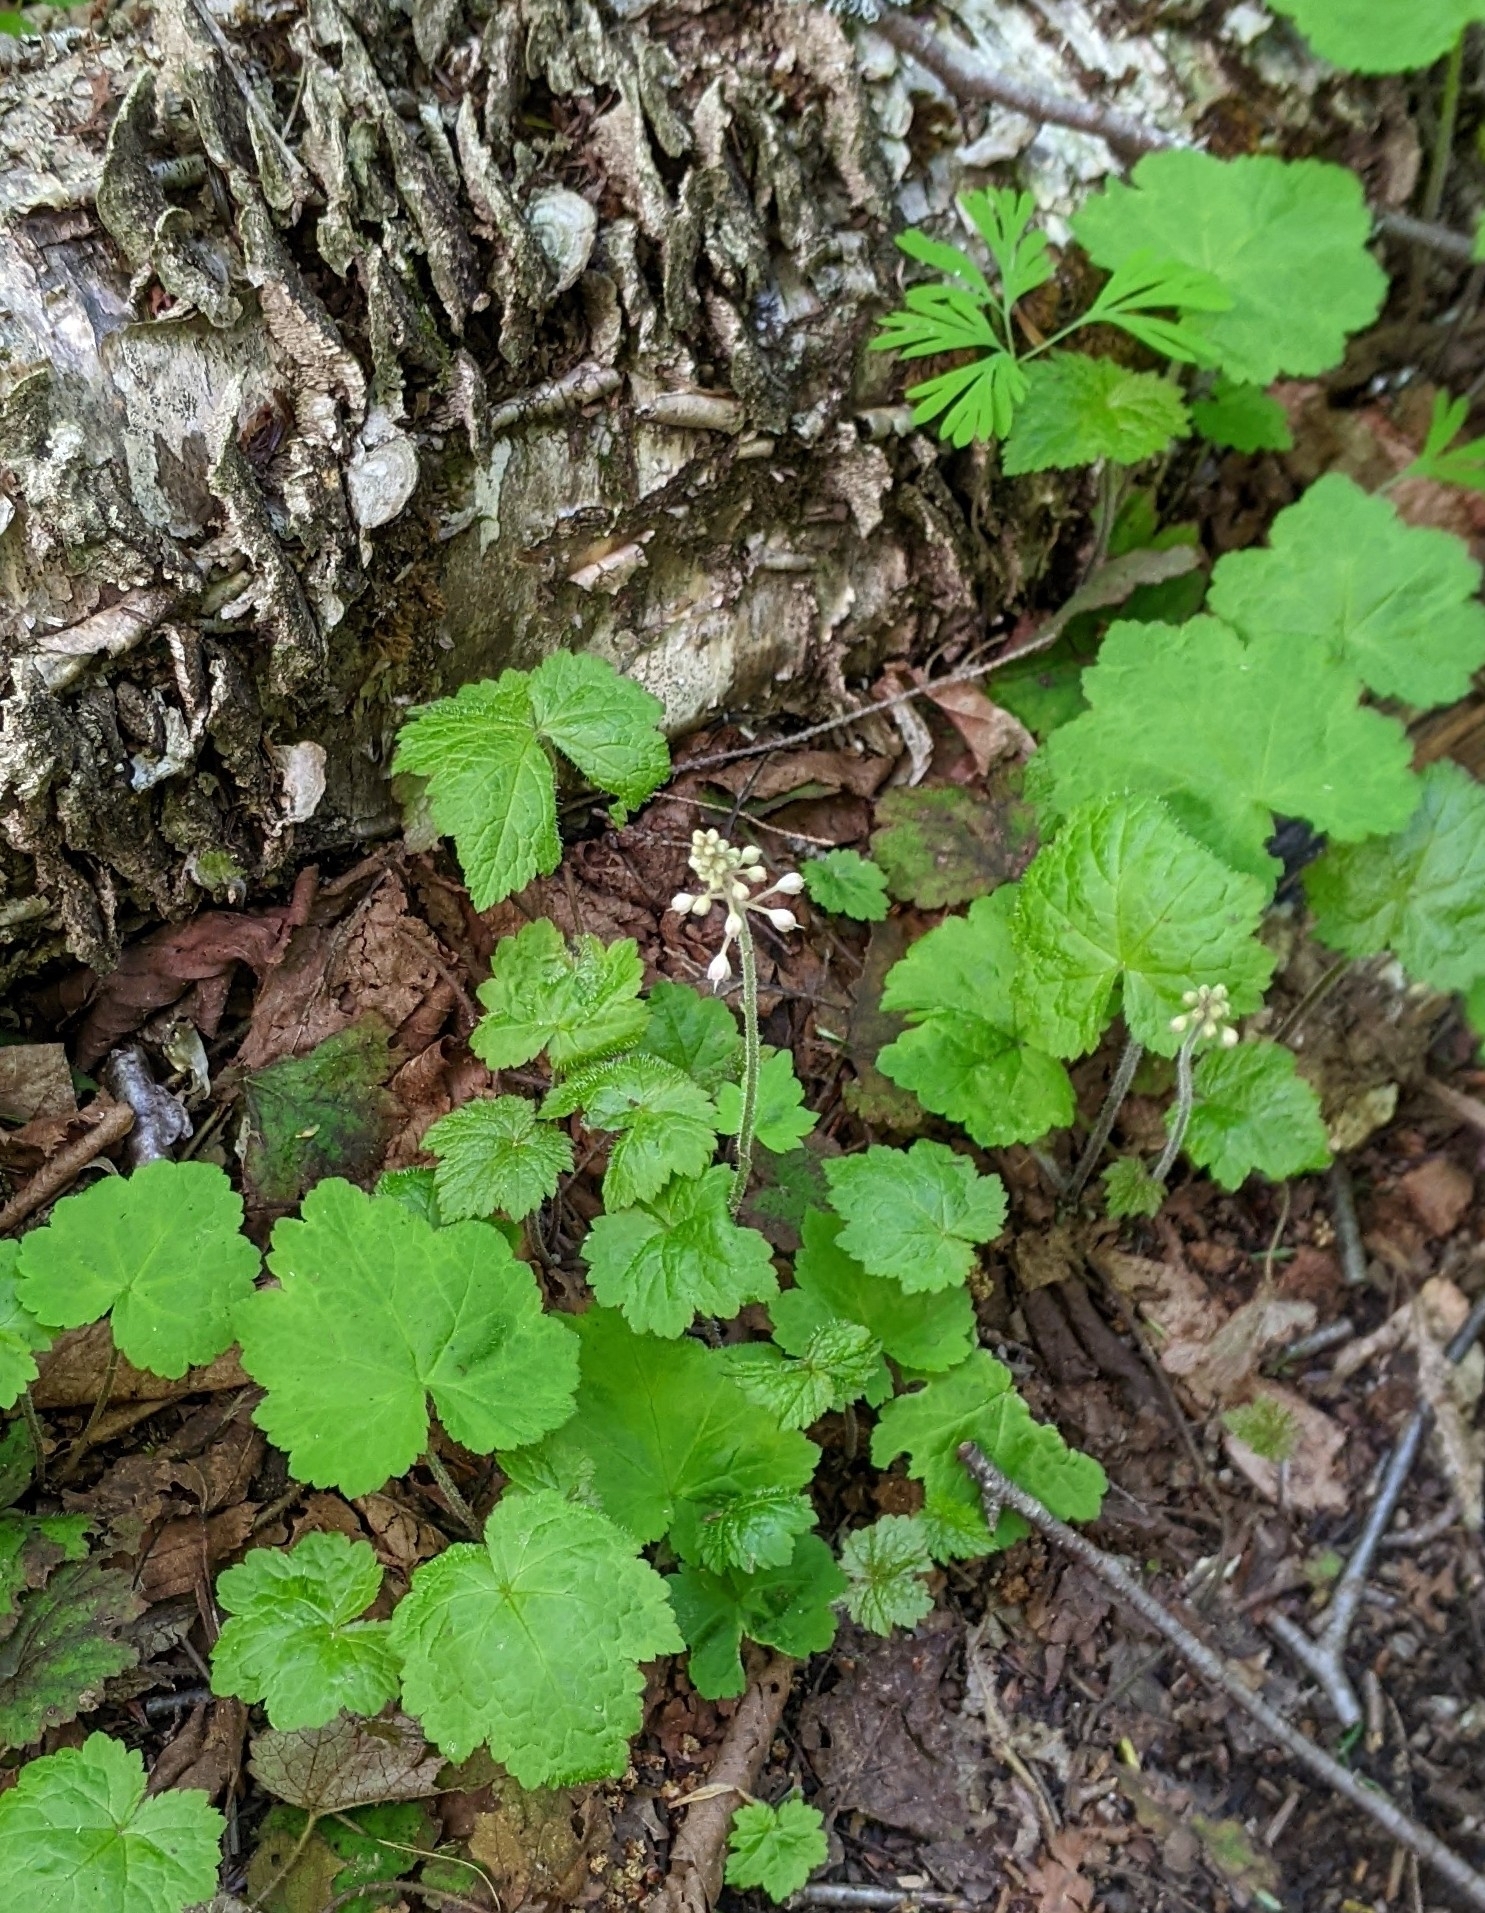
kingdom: Plantae
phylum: Tracheophyta
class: Magnoliopsida
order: Saxifragales
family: Saxifragaceae
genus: Tiarella
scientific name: Tiarella stolonifera
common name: Stoloniferous foamflower
